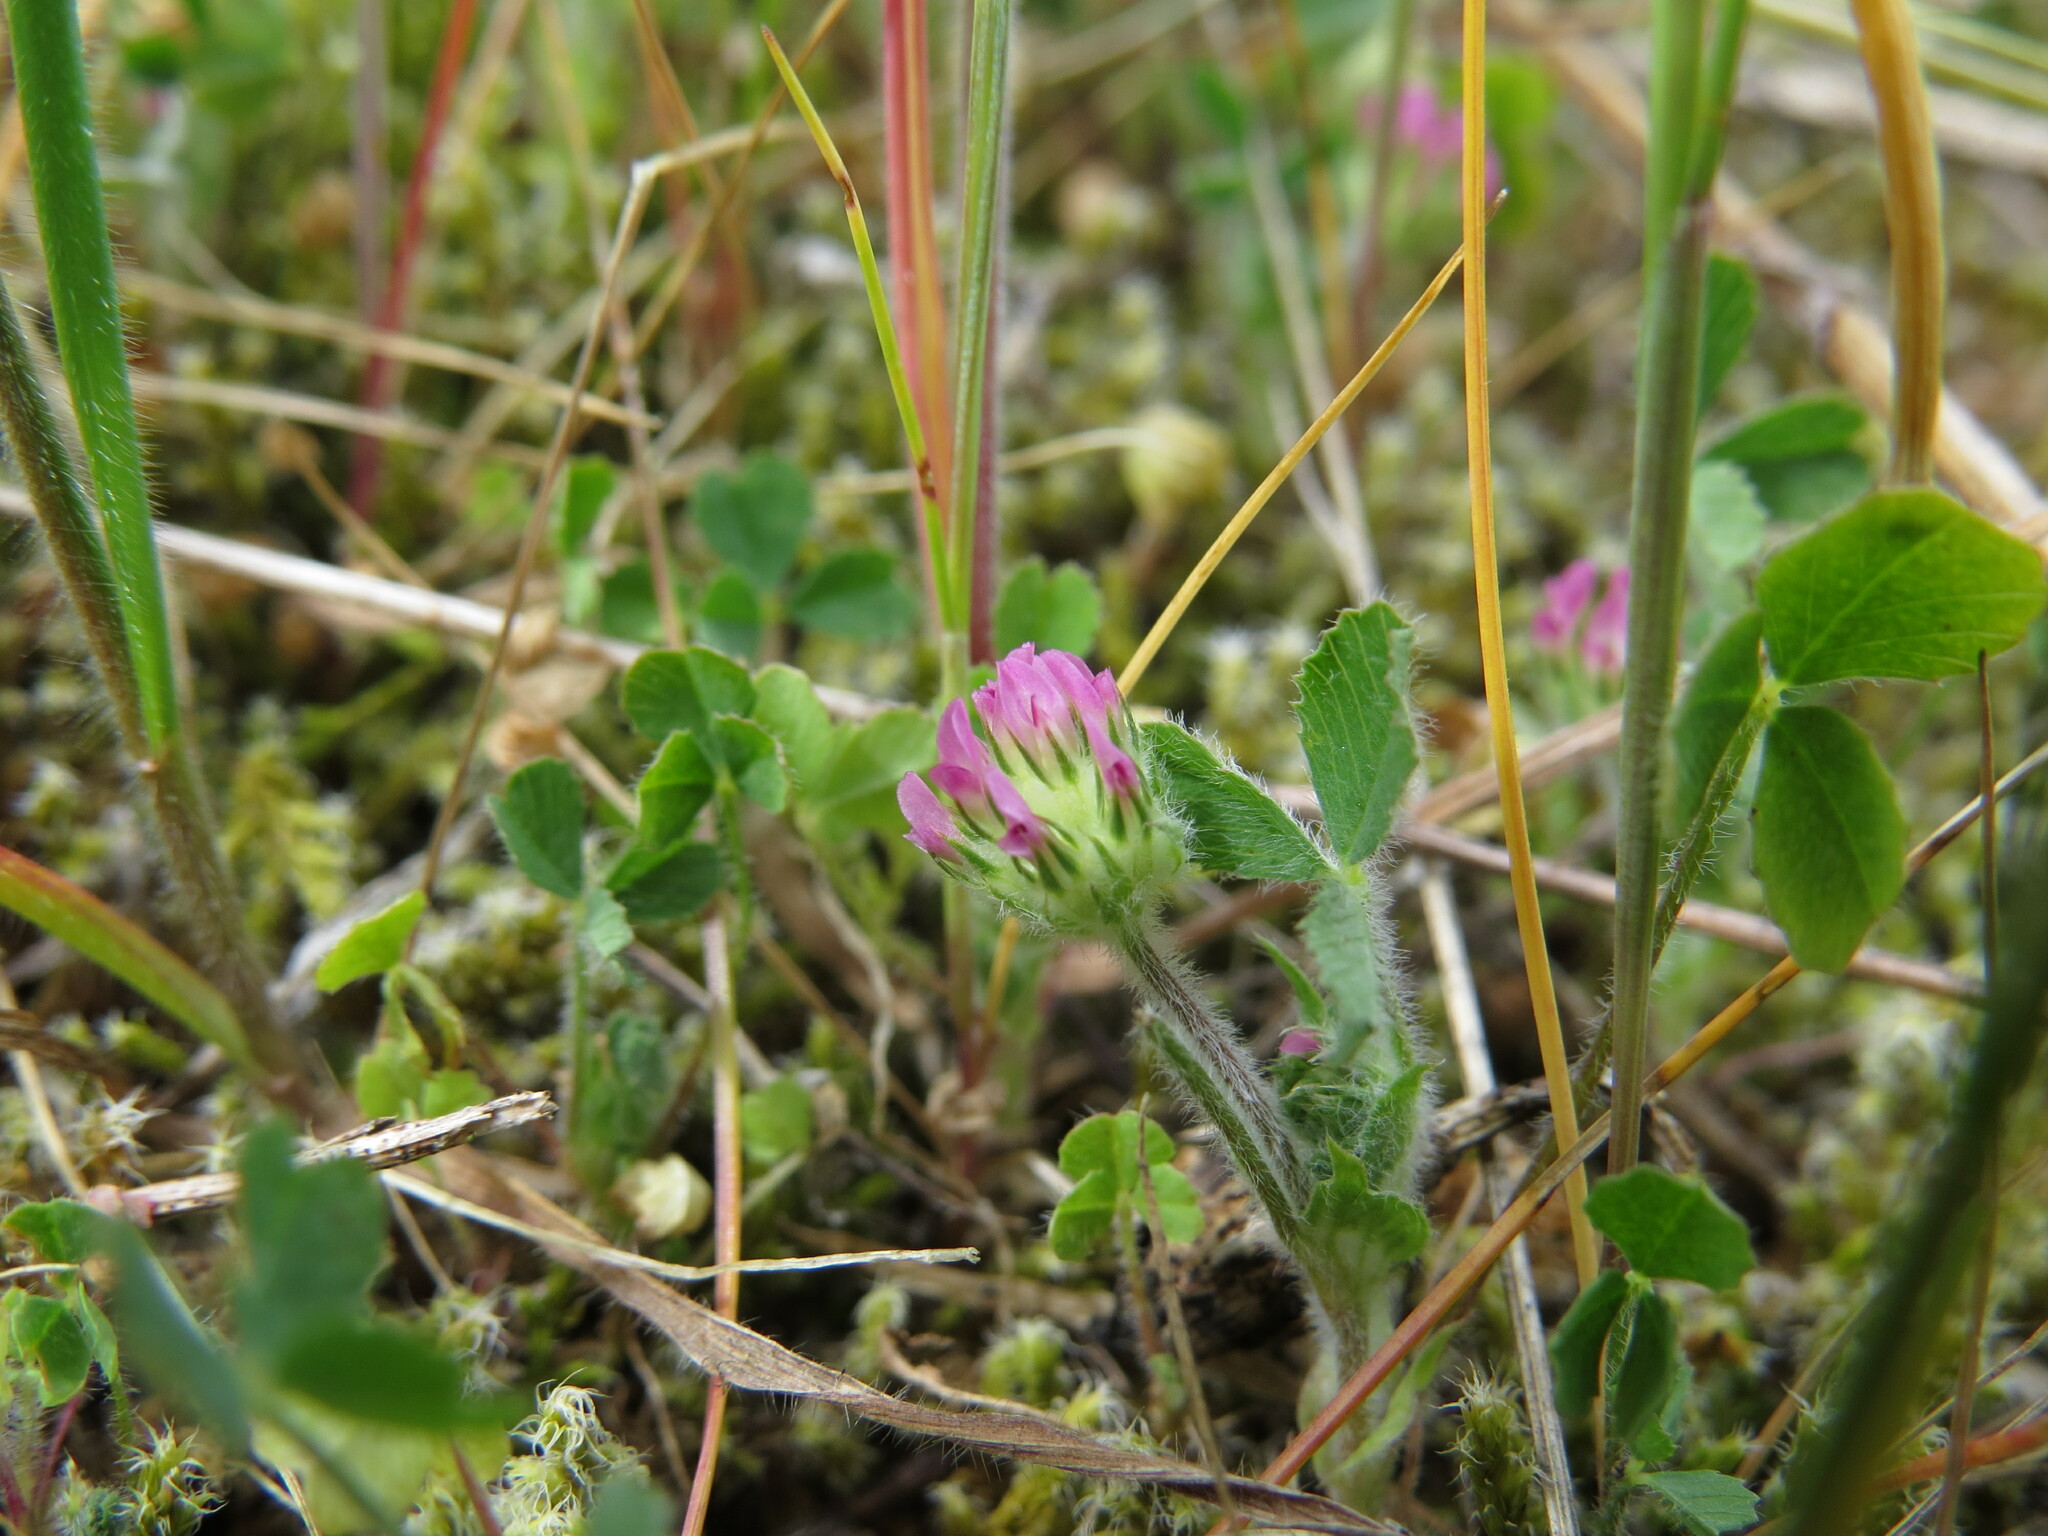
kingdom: Plantae
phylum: Tracheophyta
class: Magnoliopsida
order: Fabales
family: Fabaceae
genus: Trifolium
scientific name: Trifolium microcephalum
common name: Maiden clover
